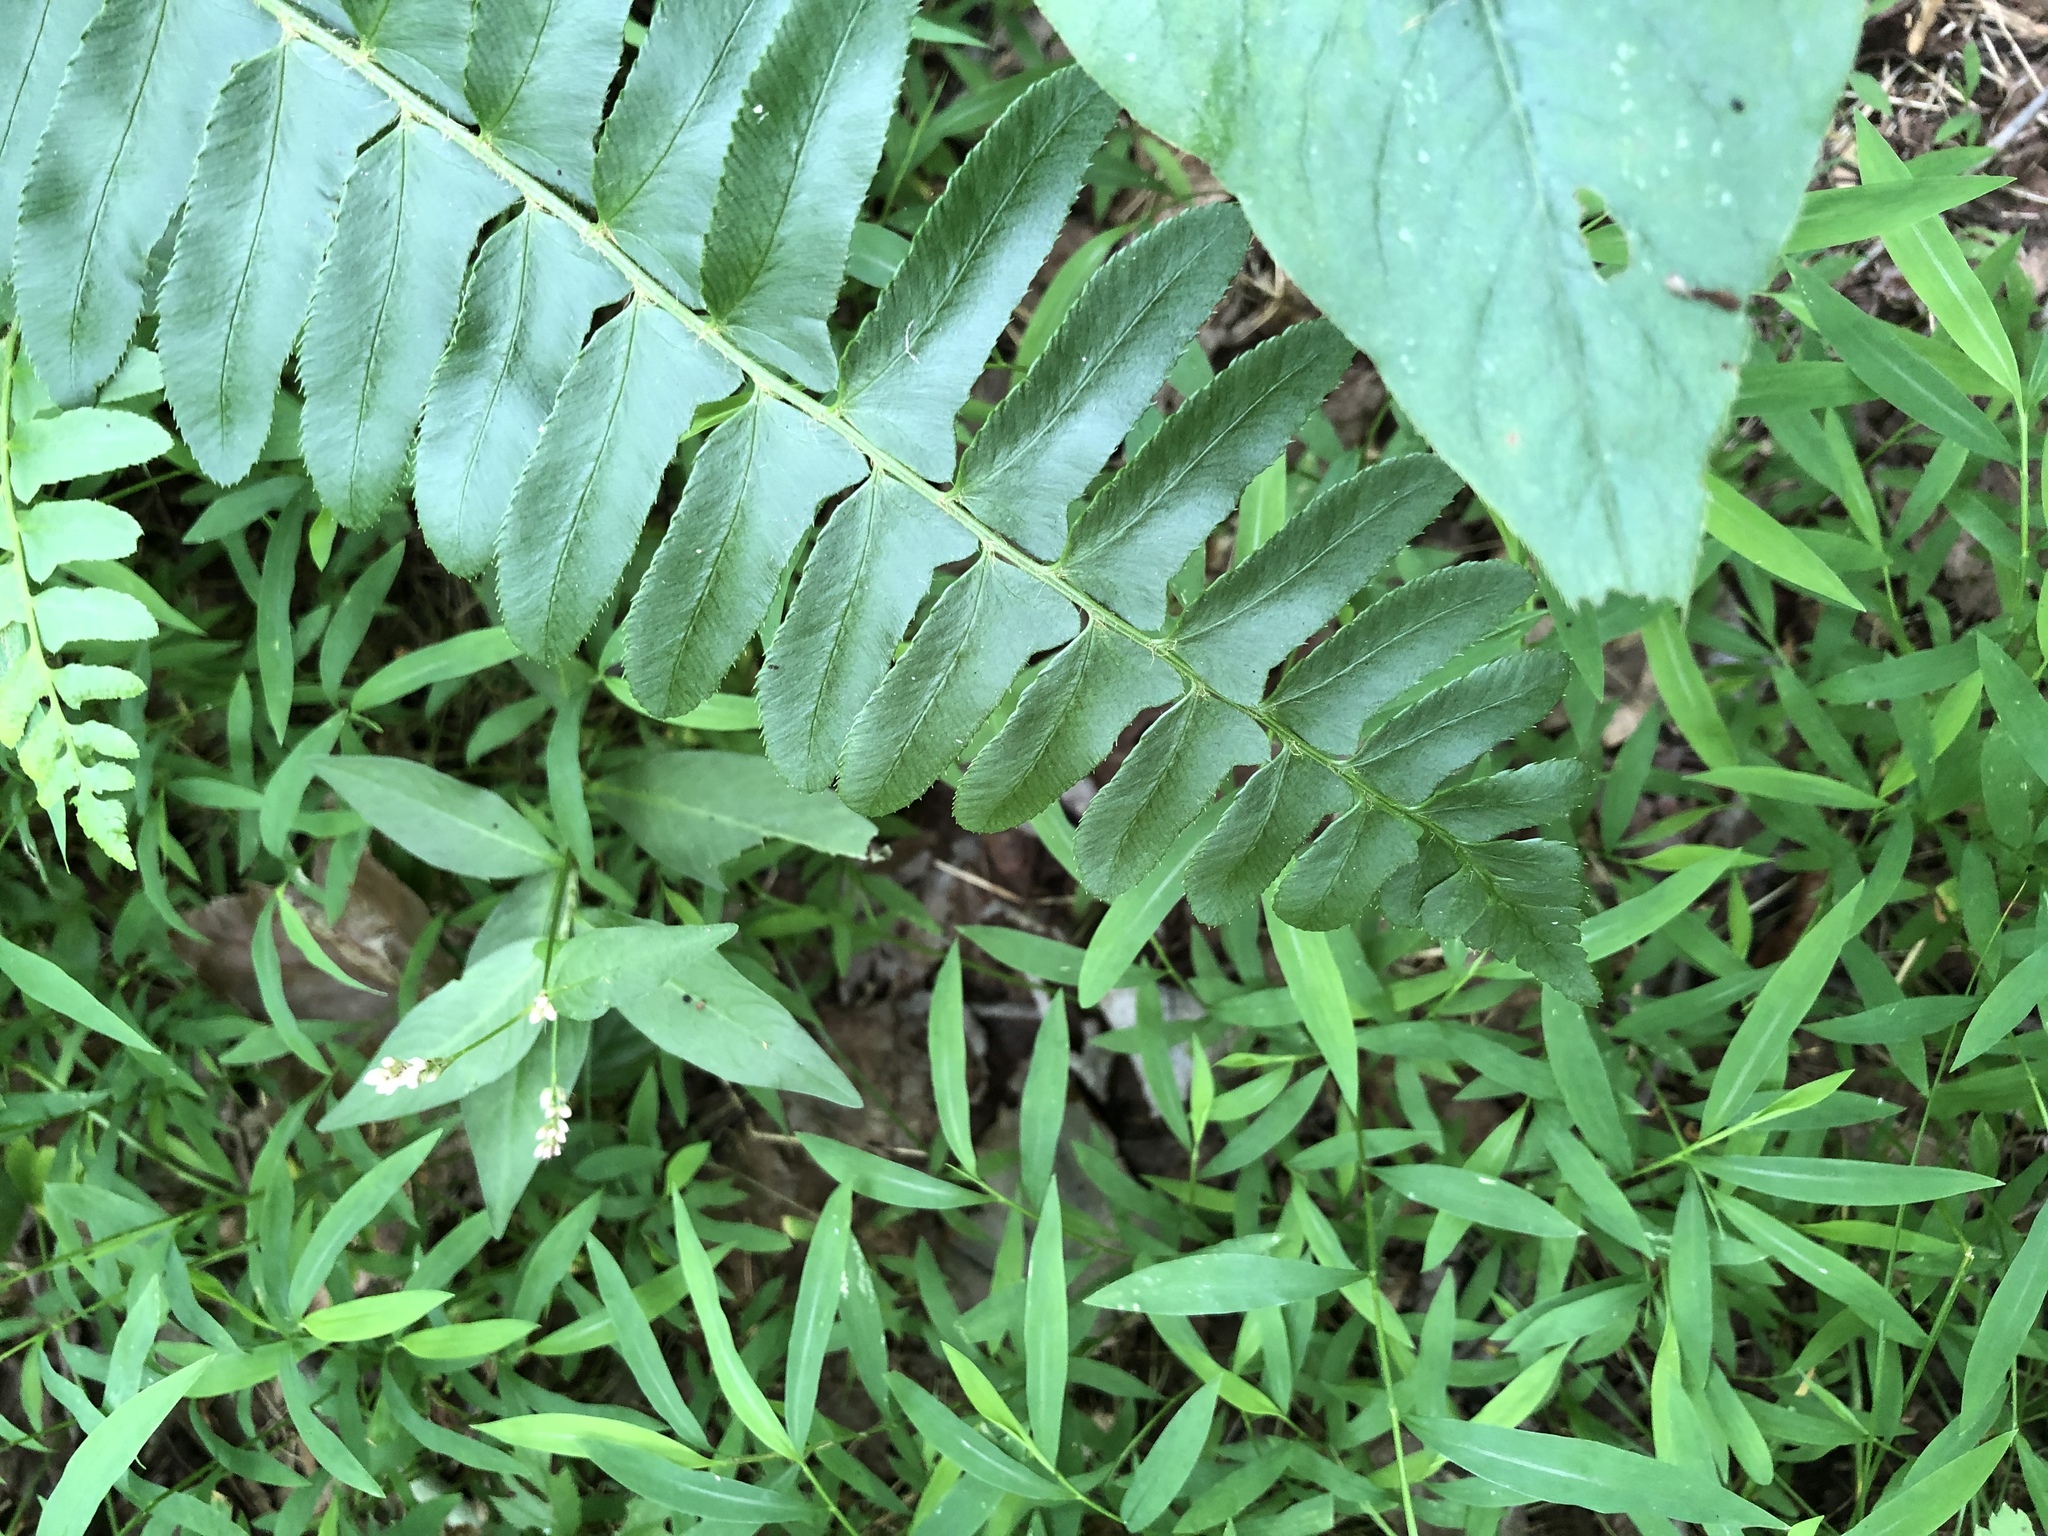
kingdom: Plantae
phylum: Tracheophyta
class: Polypodiopsida
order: Polypodiales
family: Dryopteridaceae
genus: Polystichum
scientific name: Polystichum acrostichoides
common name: Christmas fern
